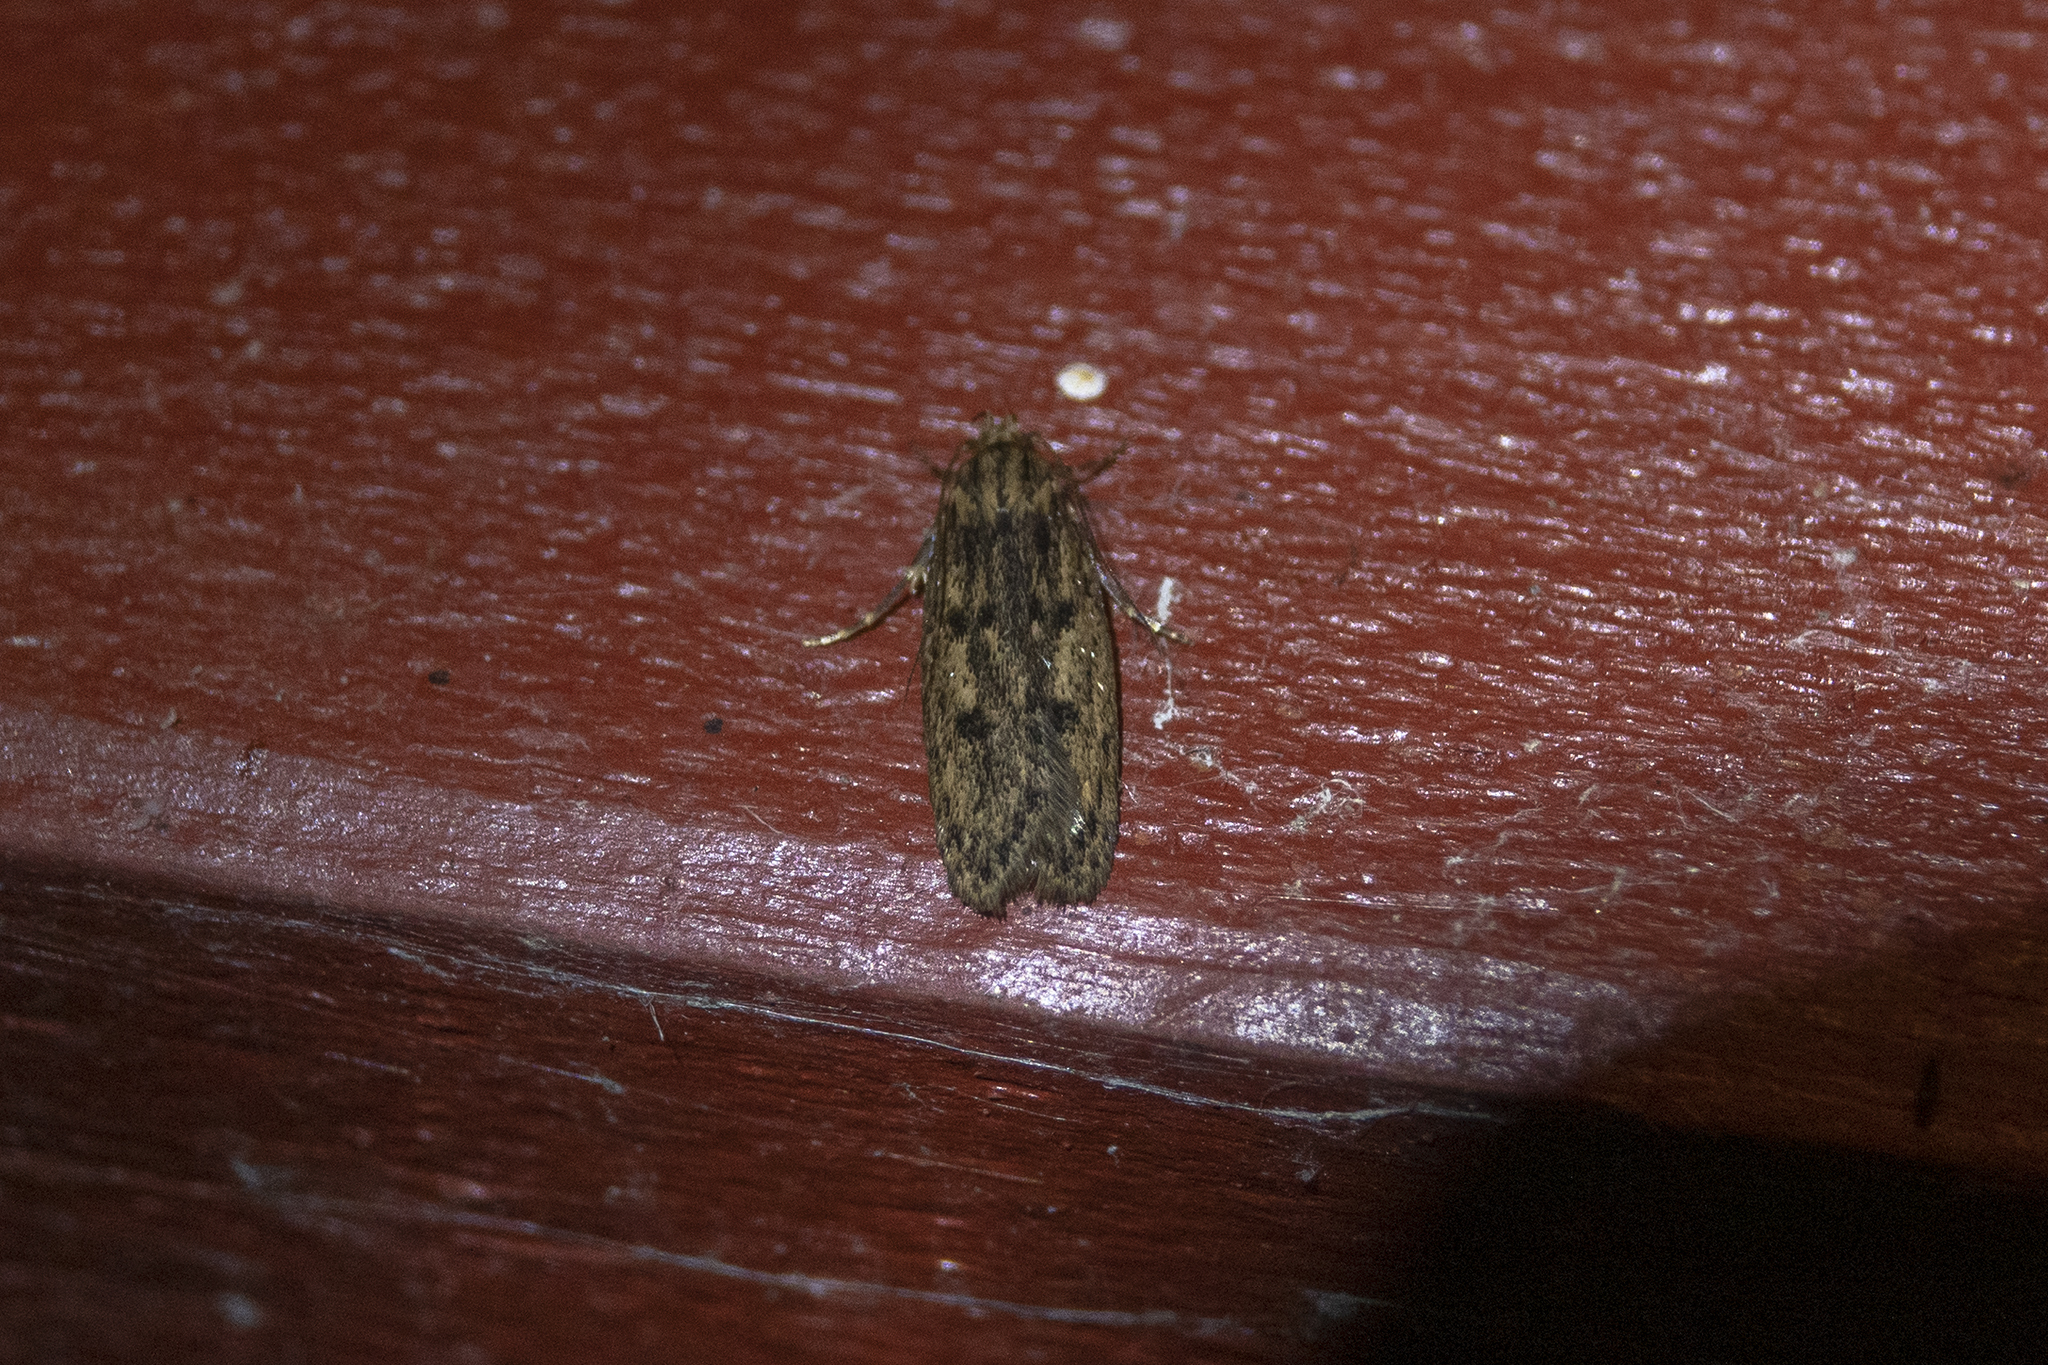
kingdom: Animalia
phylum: Arthropoda
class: Insecta
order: Lepidoptera
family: Oecophoridae
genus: Hofmannophila
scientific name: Hofmannophila pseudospretella
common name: Brown house moth
